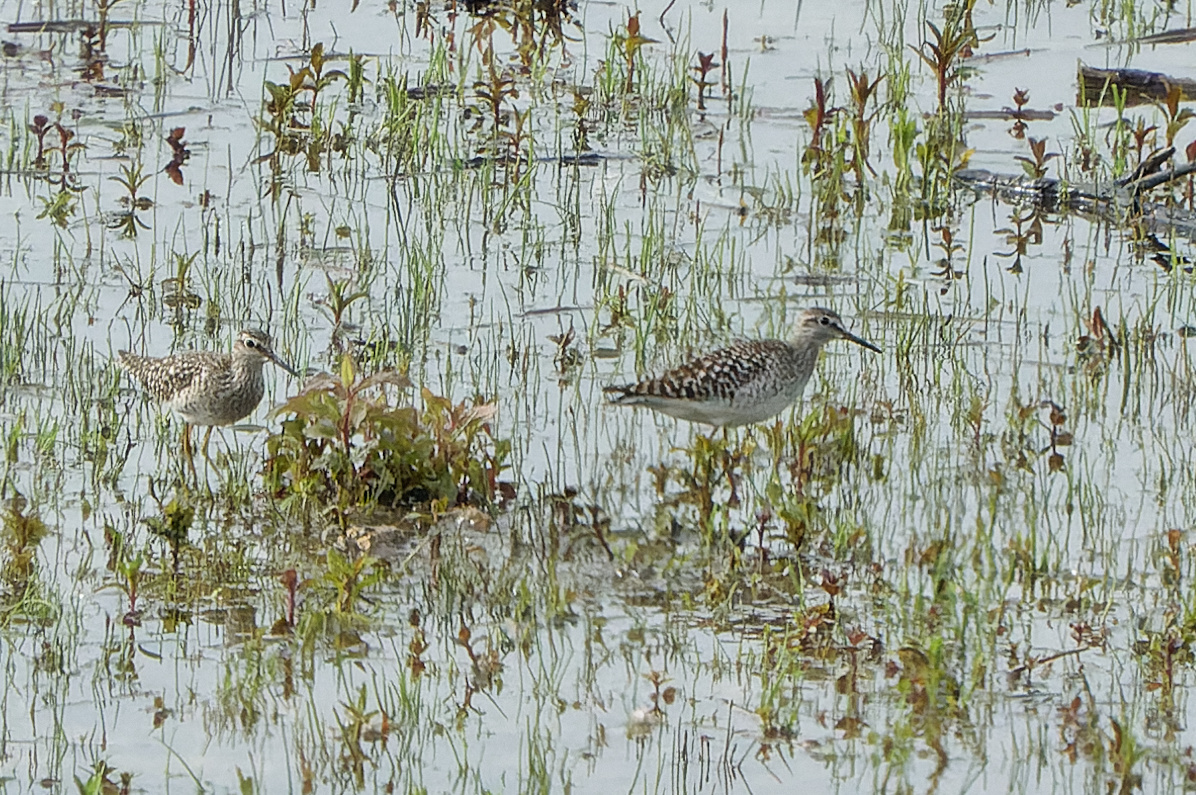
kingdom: Animalia
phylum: Chordata
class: Aves
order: Charadriiformes
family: Scolopacidae
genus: Tringa
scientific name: Tringa glareola
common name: Wood sandpiper
